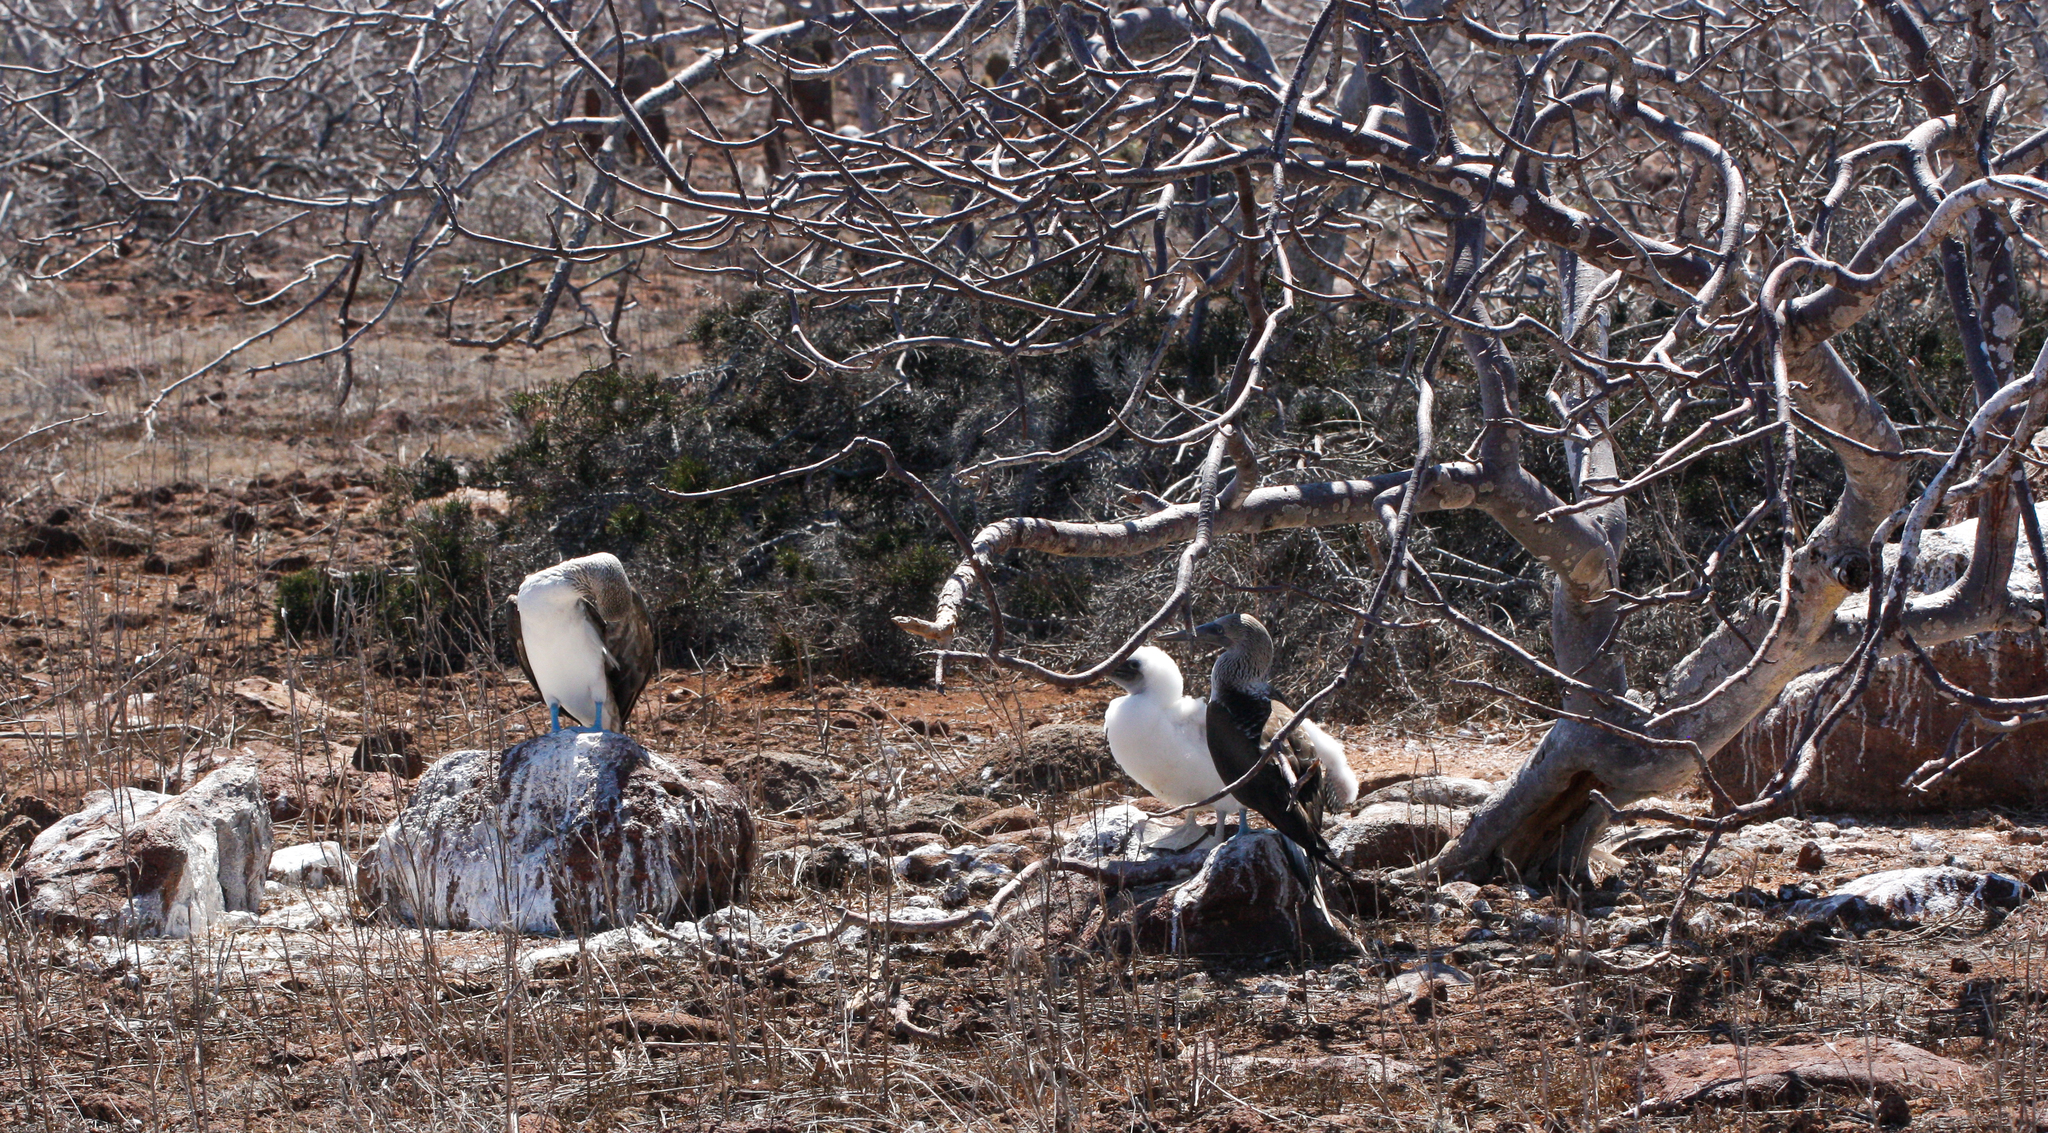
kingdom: Animalia
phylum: Chordata
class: Aves
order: Suliformes
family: Sulidae
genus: Sula
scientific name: Sula nebouxii
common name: Blue-footed booby
